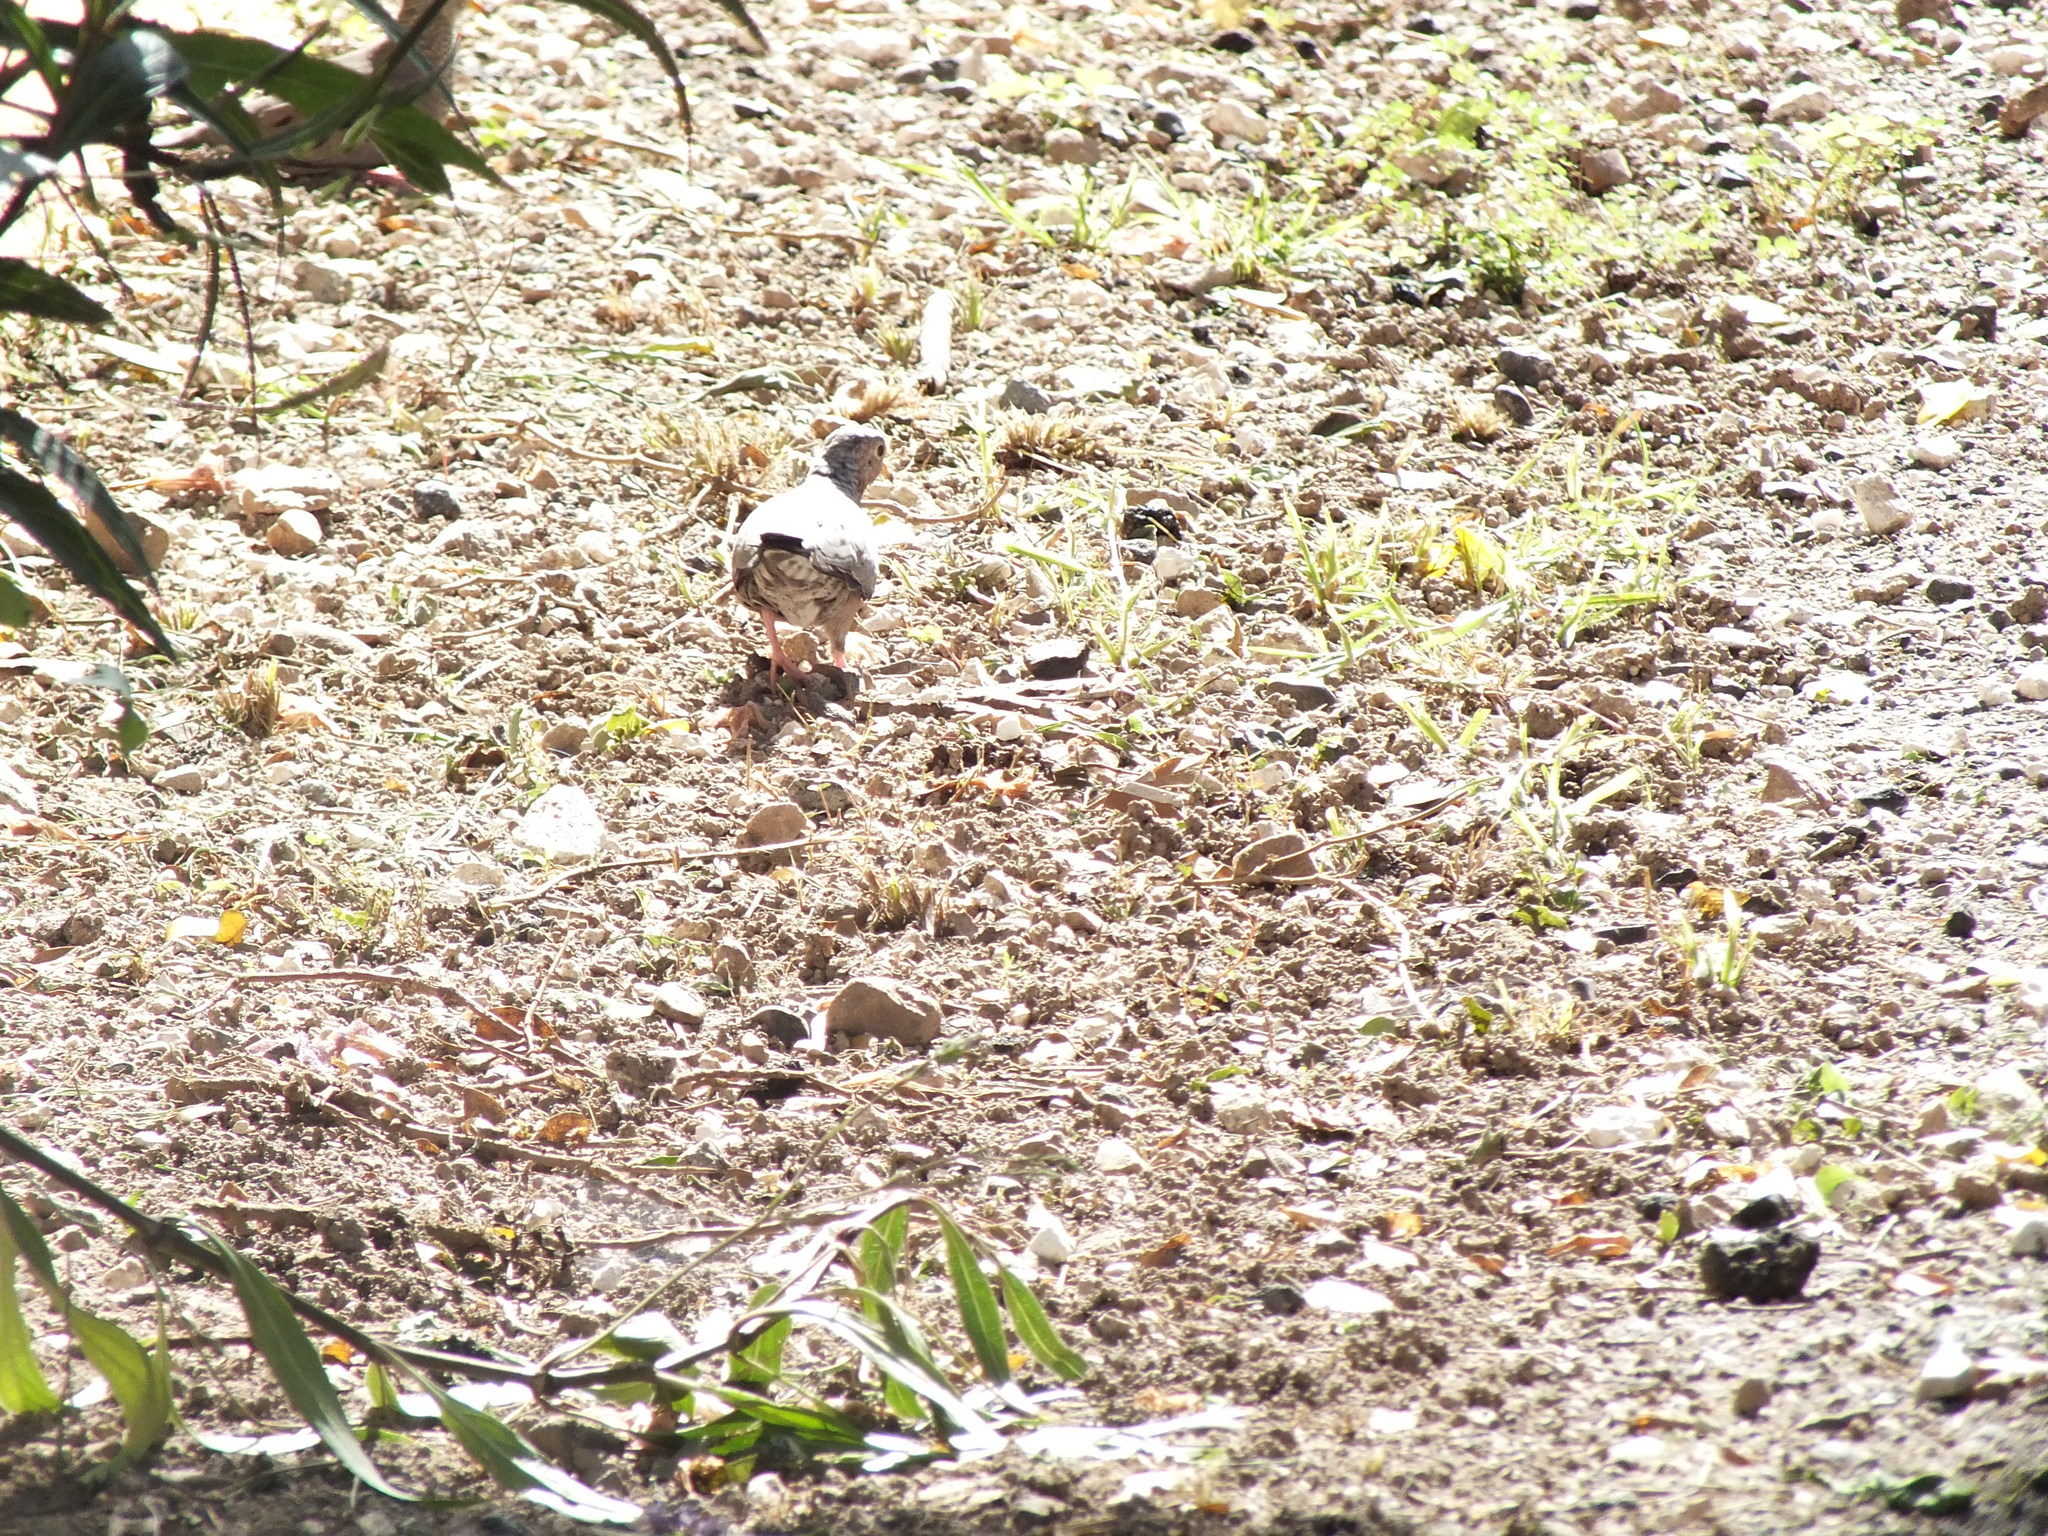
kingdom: Animalia
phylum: Chordata
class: Aves
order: Columbiformes
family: Columbidae
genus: Columbina
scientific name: Columbina passerina
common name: Common ground-dove
